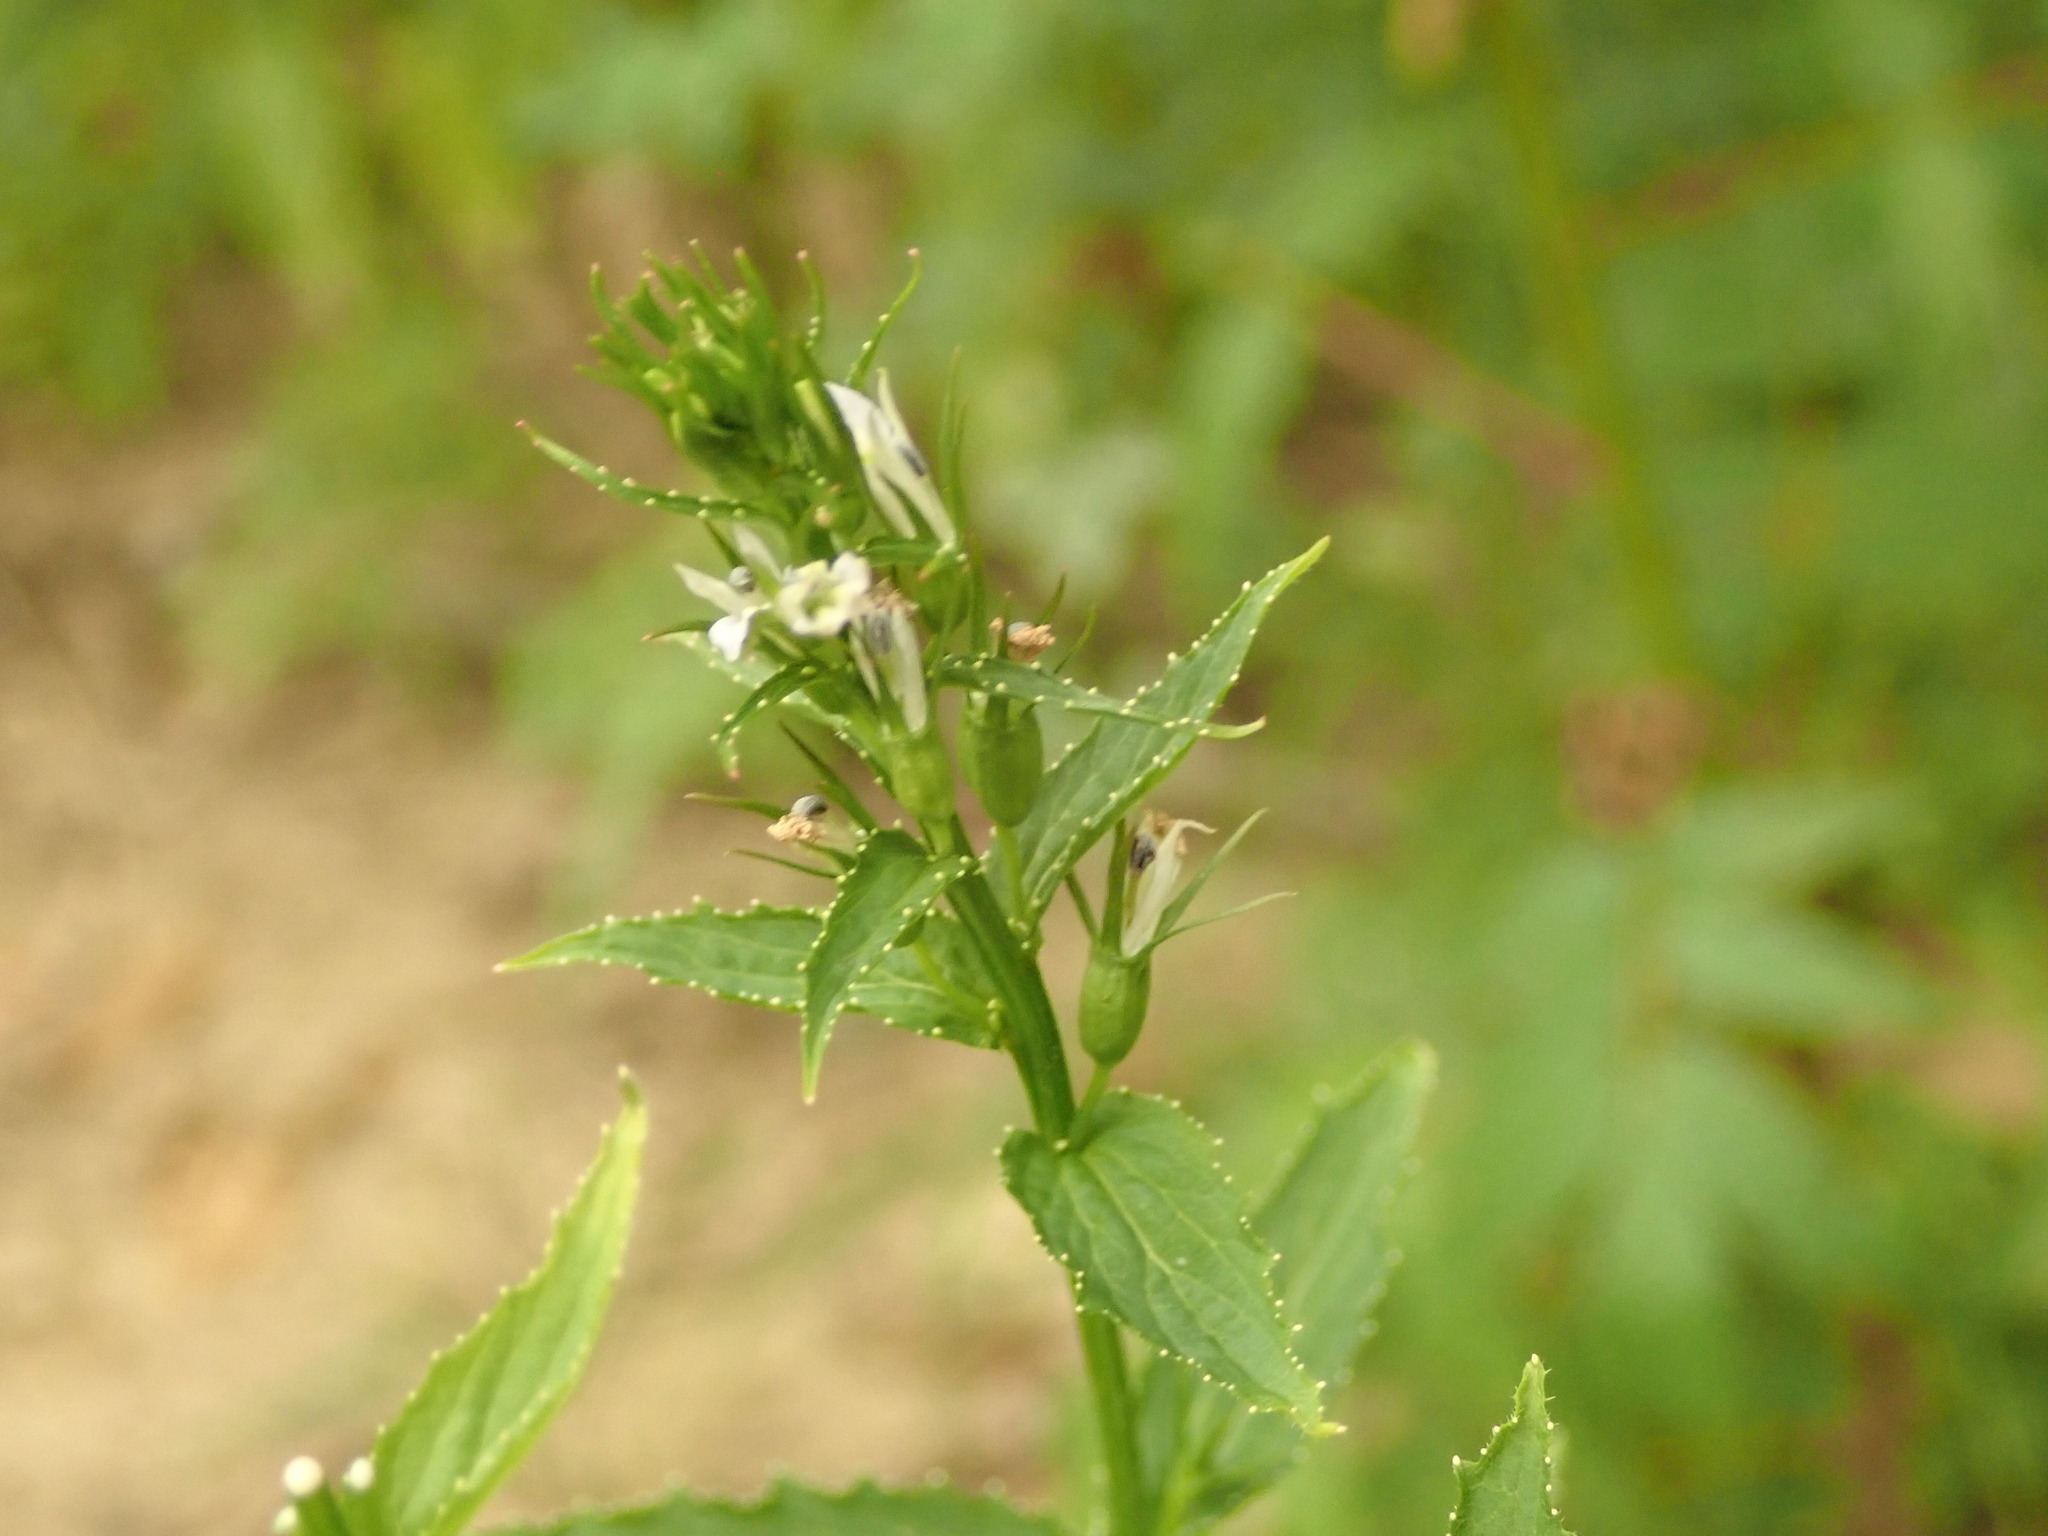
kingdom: Plantae
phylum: Tracheophyta
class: Magnoliopsida
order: Asterales
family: Campanulaceae
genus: Lobelia
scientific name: Lobelia inflata
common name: Indian tobacco
